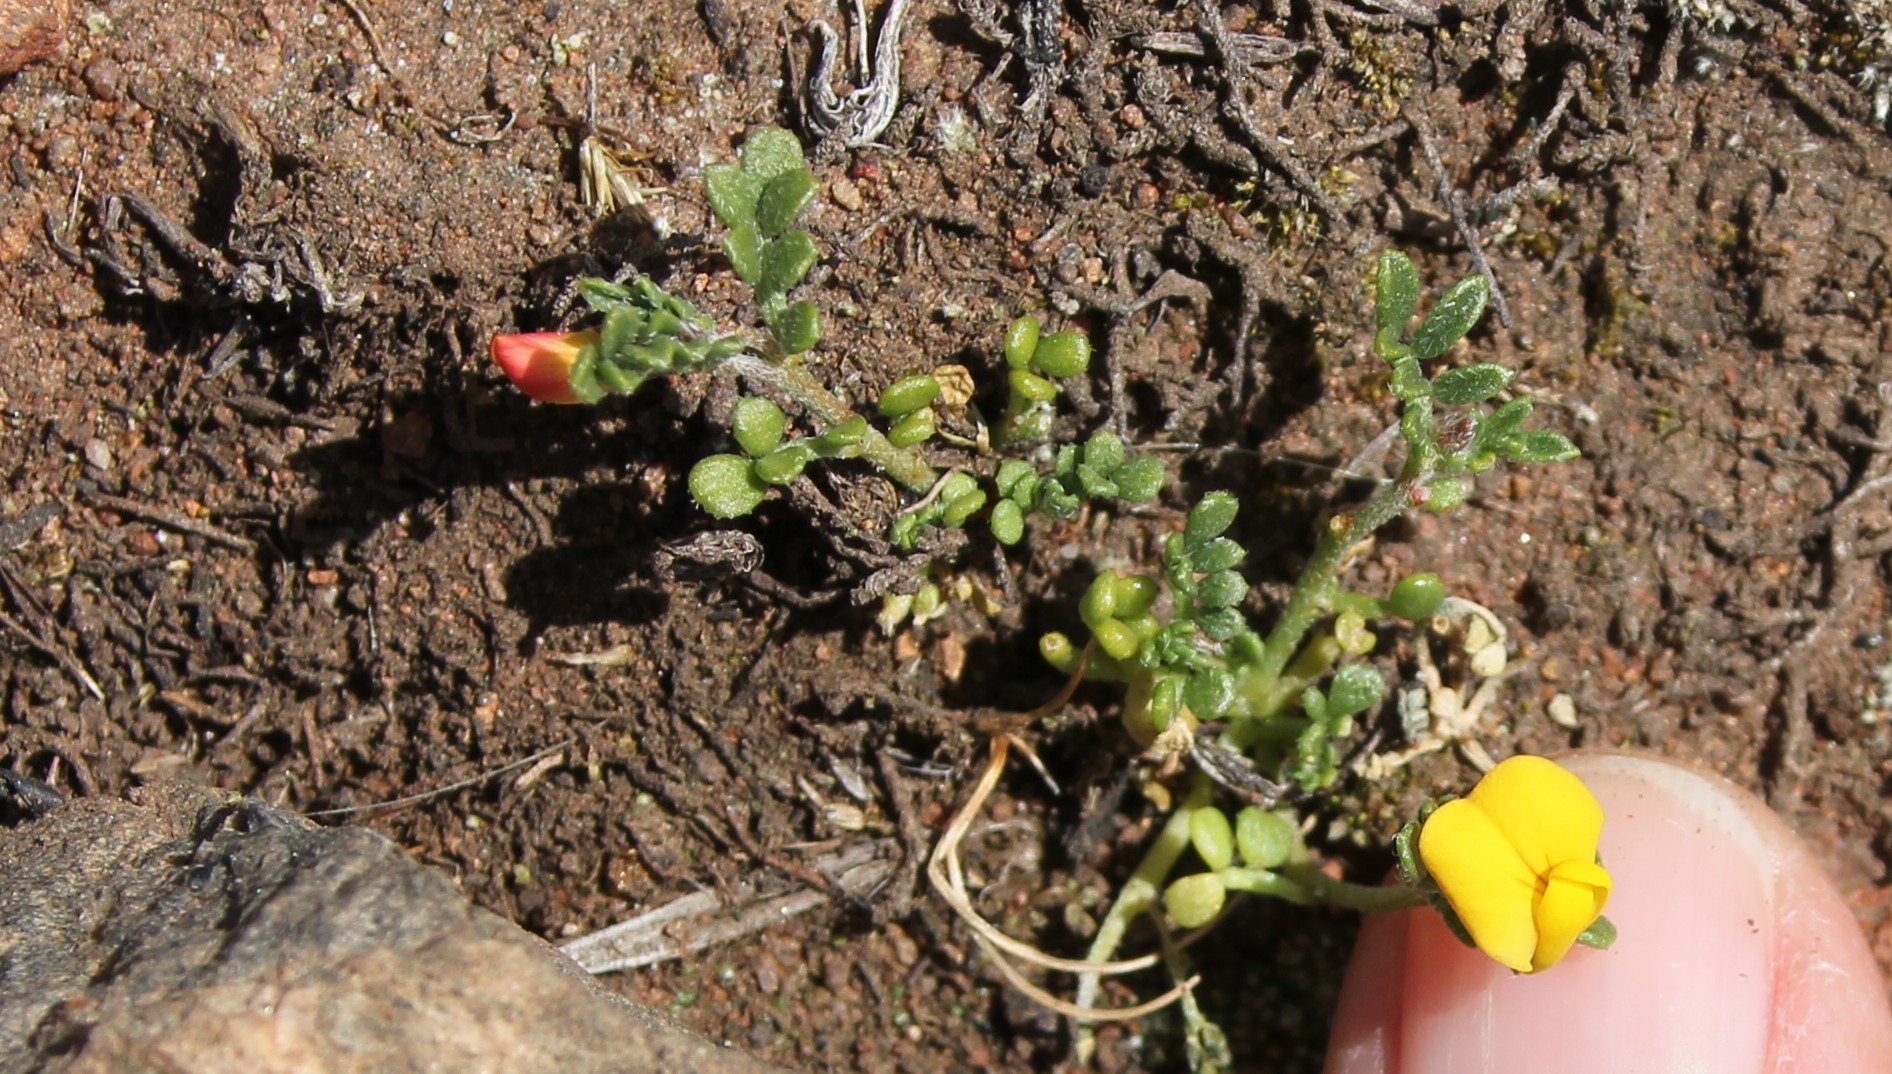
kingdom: Plantae
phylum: Tracheophyta
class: Magnoliopsida
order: Fabales
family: Fabaceae
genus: Acmispon
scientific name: Acmispon strigosus
